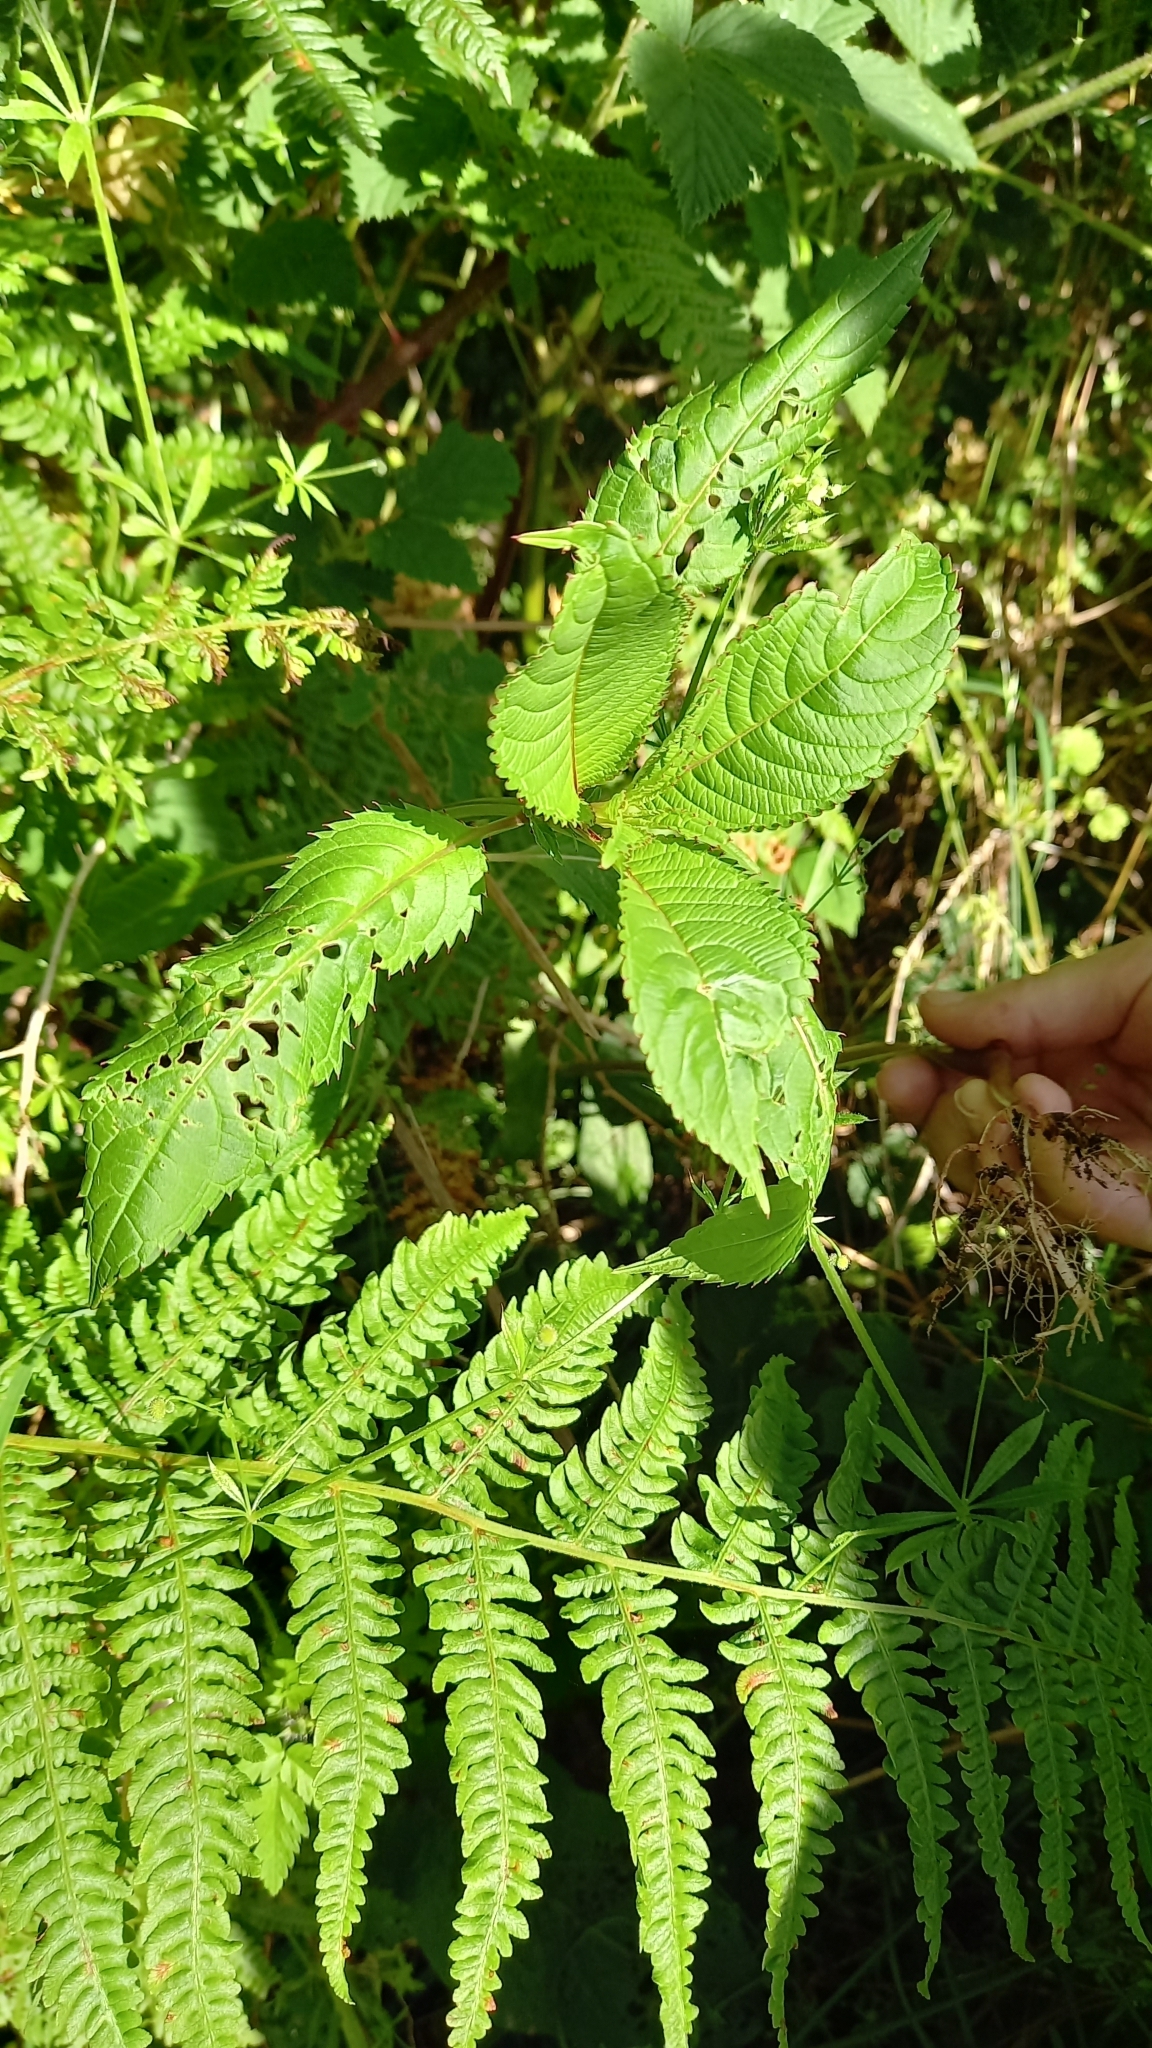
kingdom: Plantae
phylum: Tracheophyta
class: Magnoliopsida
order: Ericales
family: Balsaminaceae
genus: Impatiens
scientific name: Impatiens glandulifera
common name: Himalayan balsam
